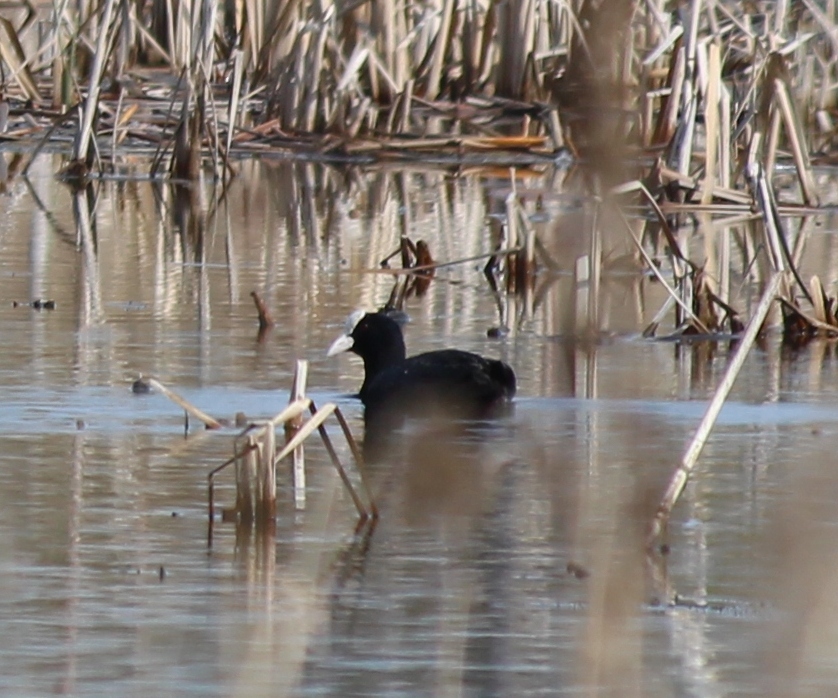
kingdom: Animalia
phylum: Chordata
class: Aves
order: Gruiformes
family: Rallidae
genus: Fulica
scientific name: Fulica atra
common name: Eurasian coot
